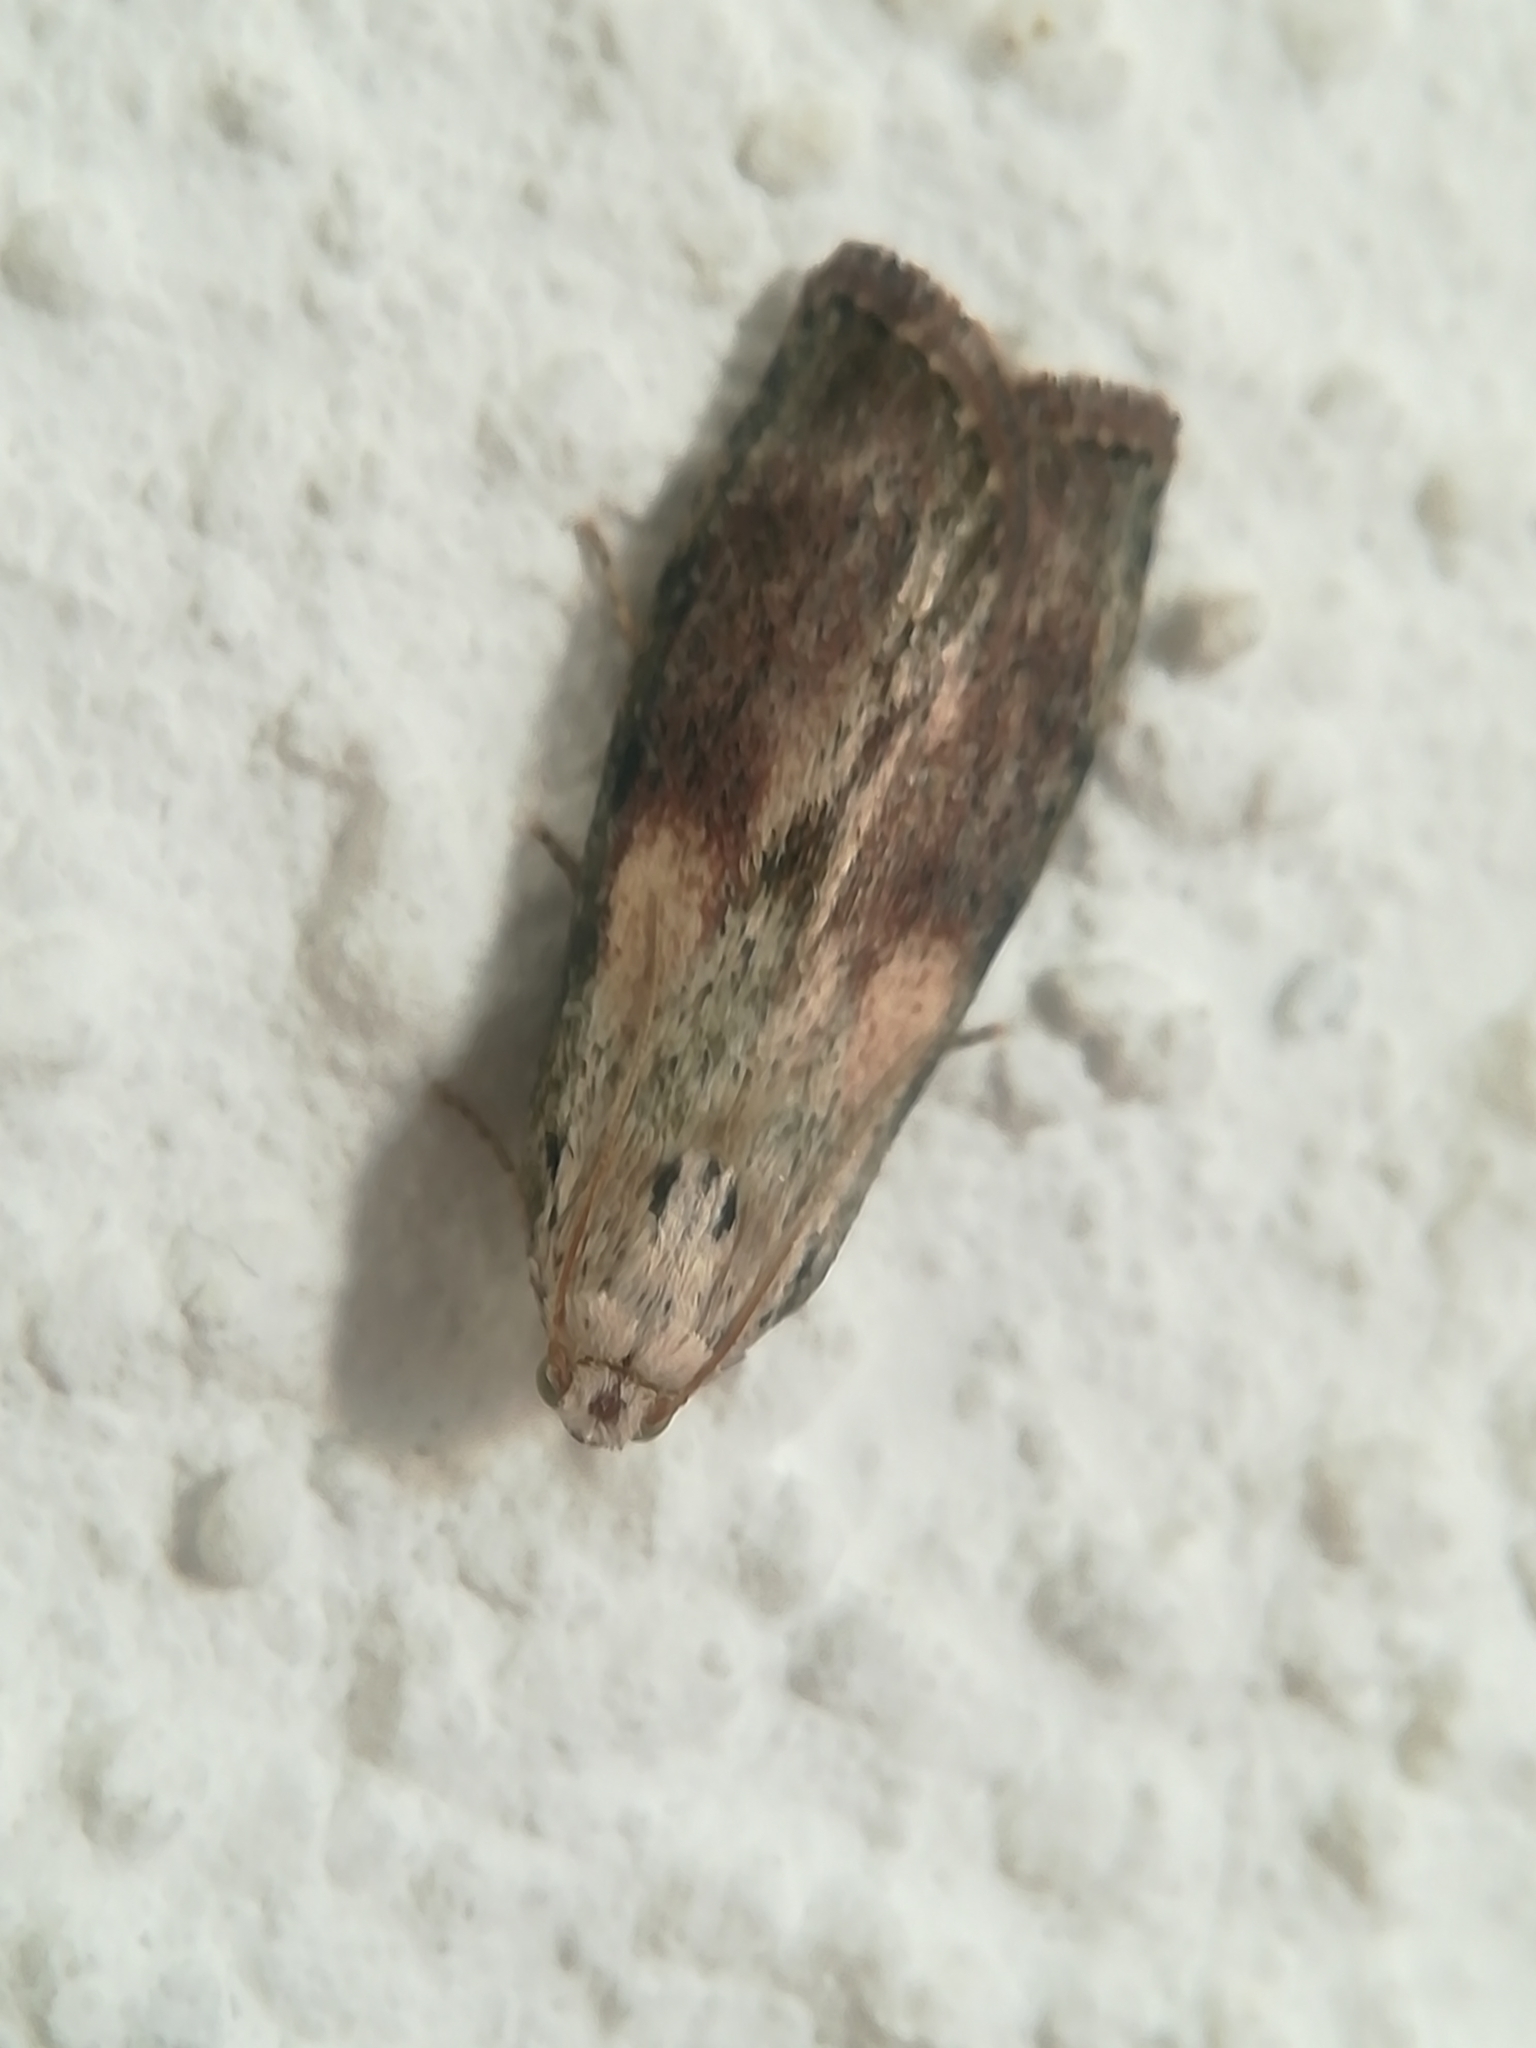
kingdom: Animalia
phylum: Arthropoda
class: Insecta
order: Lepidoptera
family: Pyralidae
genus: Aphomia
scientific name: Aphomia sociella
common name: Bee moth
